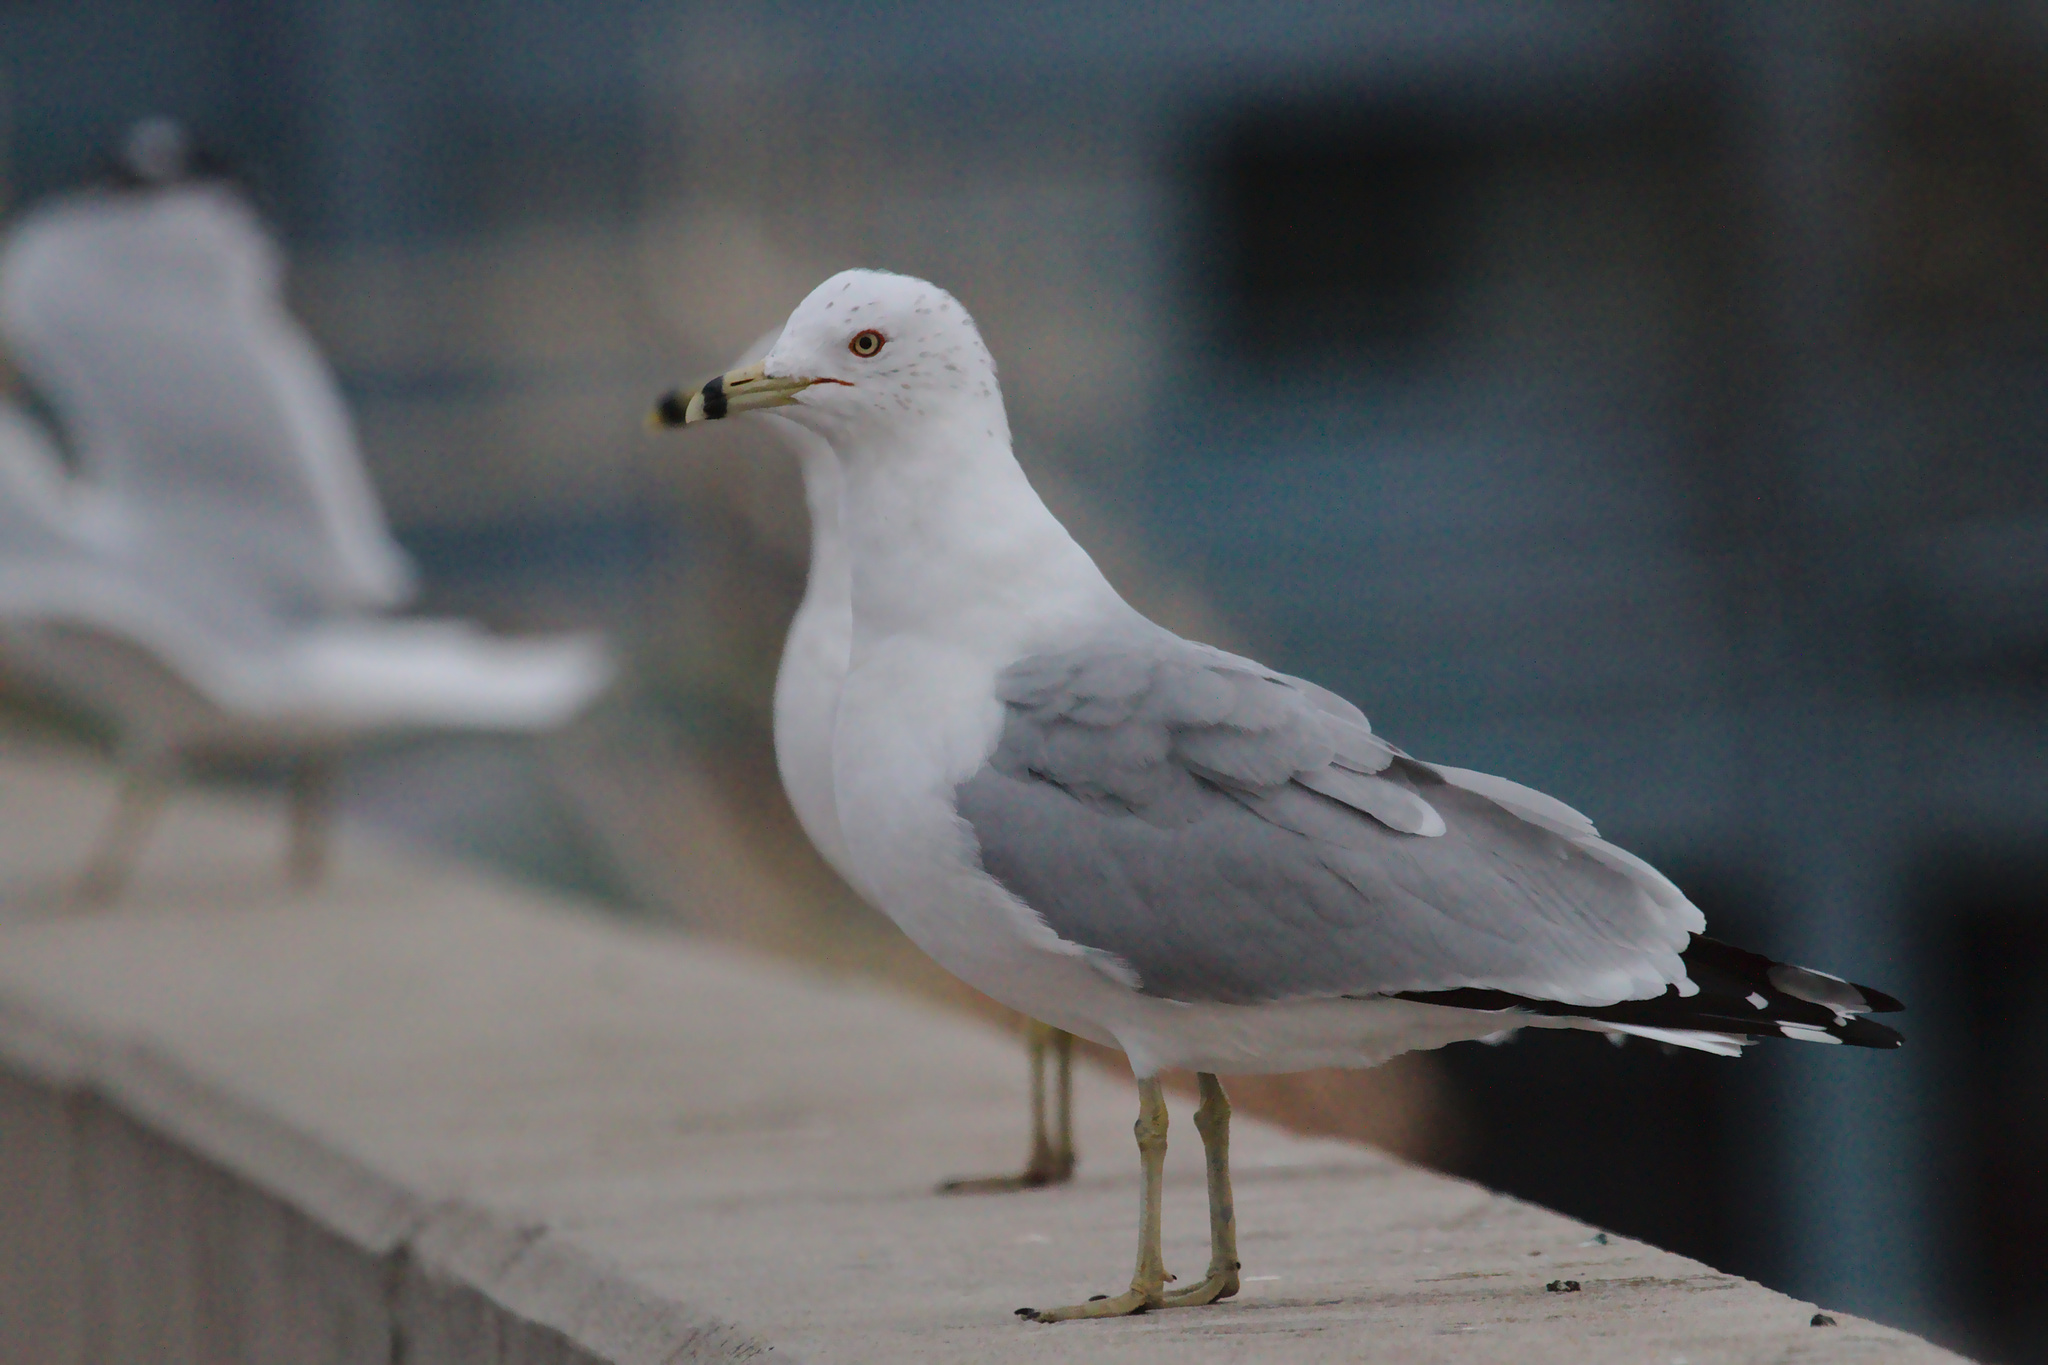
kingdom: Animalia
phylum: Chordata
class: Aves
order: Charadriiformes
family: Laridae
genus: Larus
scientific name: Larus delawarensis
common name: Ring-billed gull
